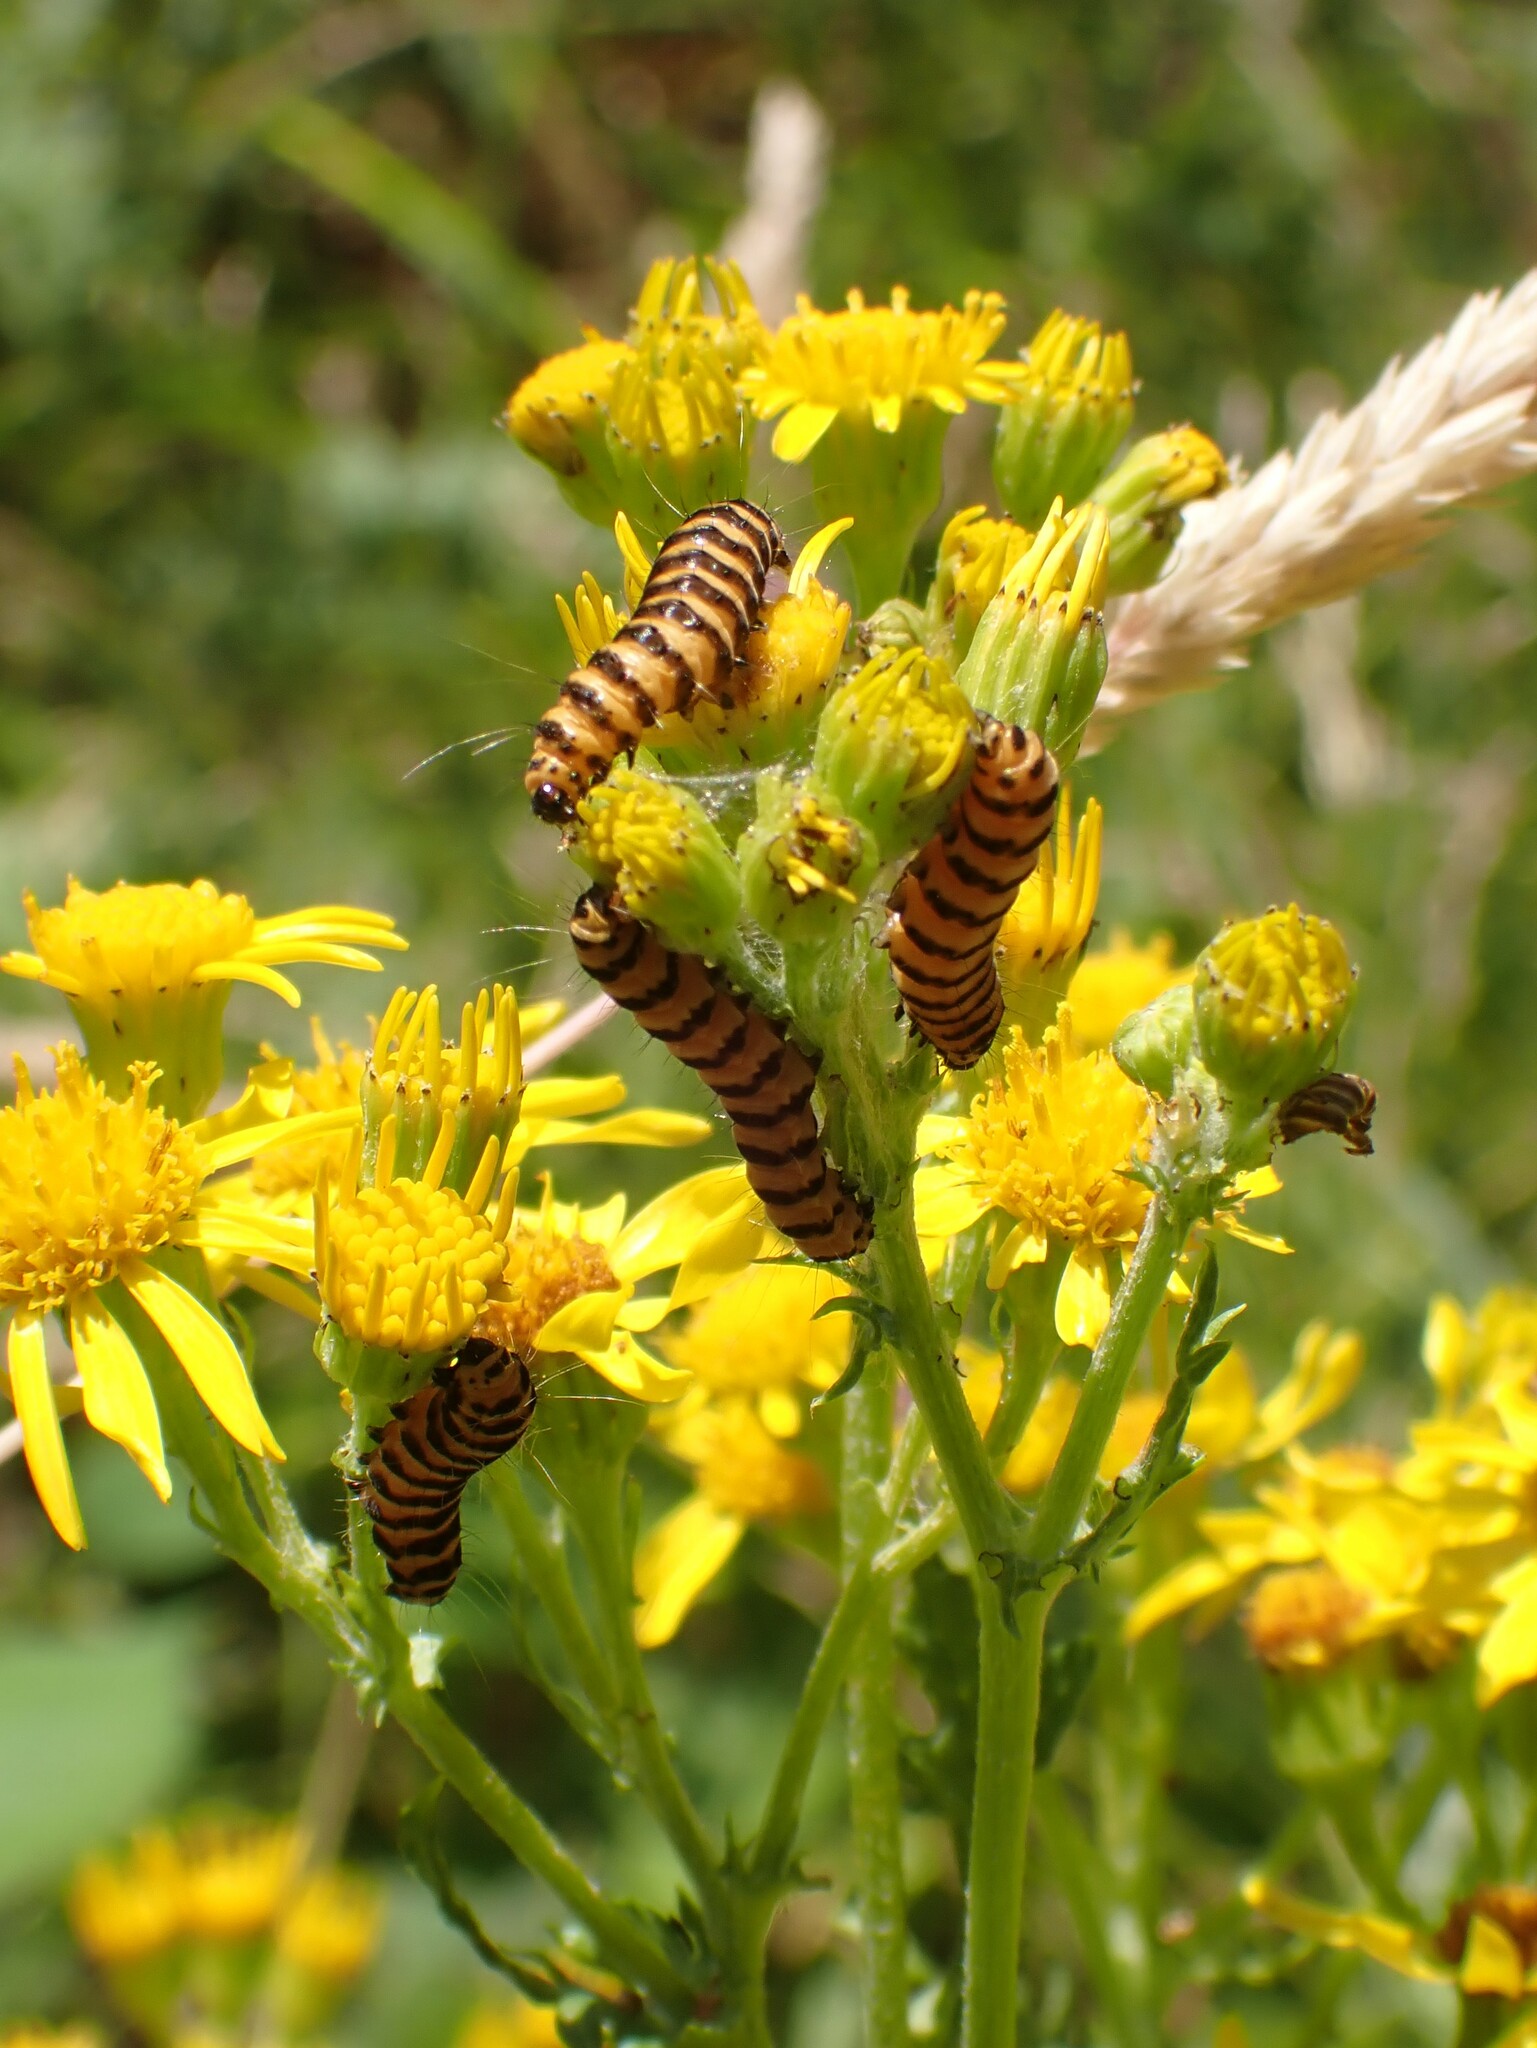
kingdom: Animalia
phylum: Arthropoda
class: Insecta
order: Lepidoptera
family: Erebidae
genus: Tyria
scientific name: Tyria jacobaeae
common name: Cinnabar
